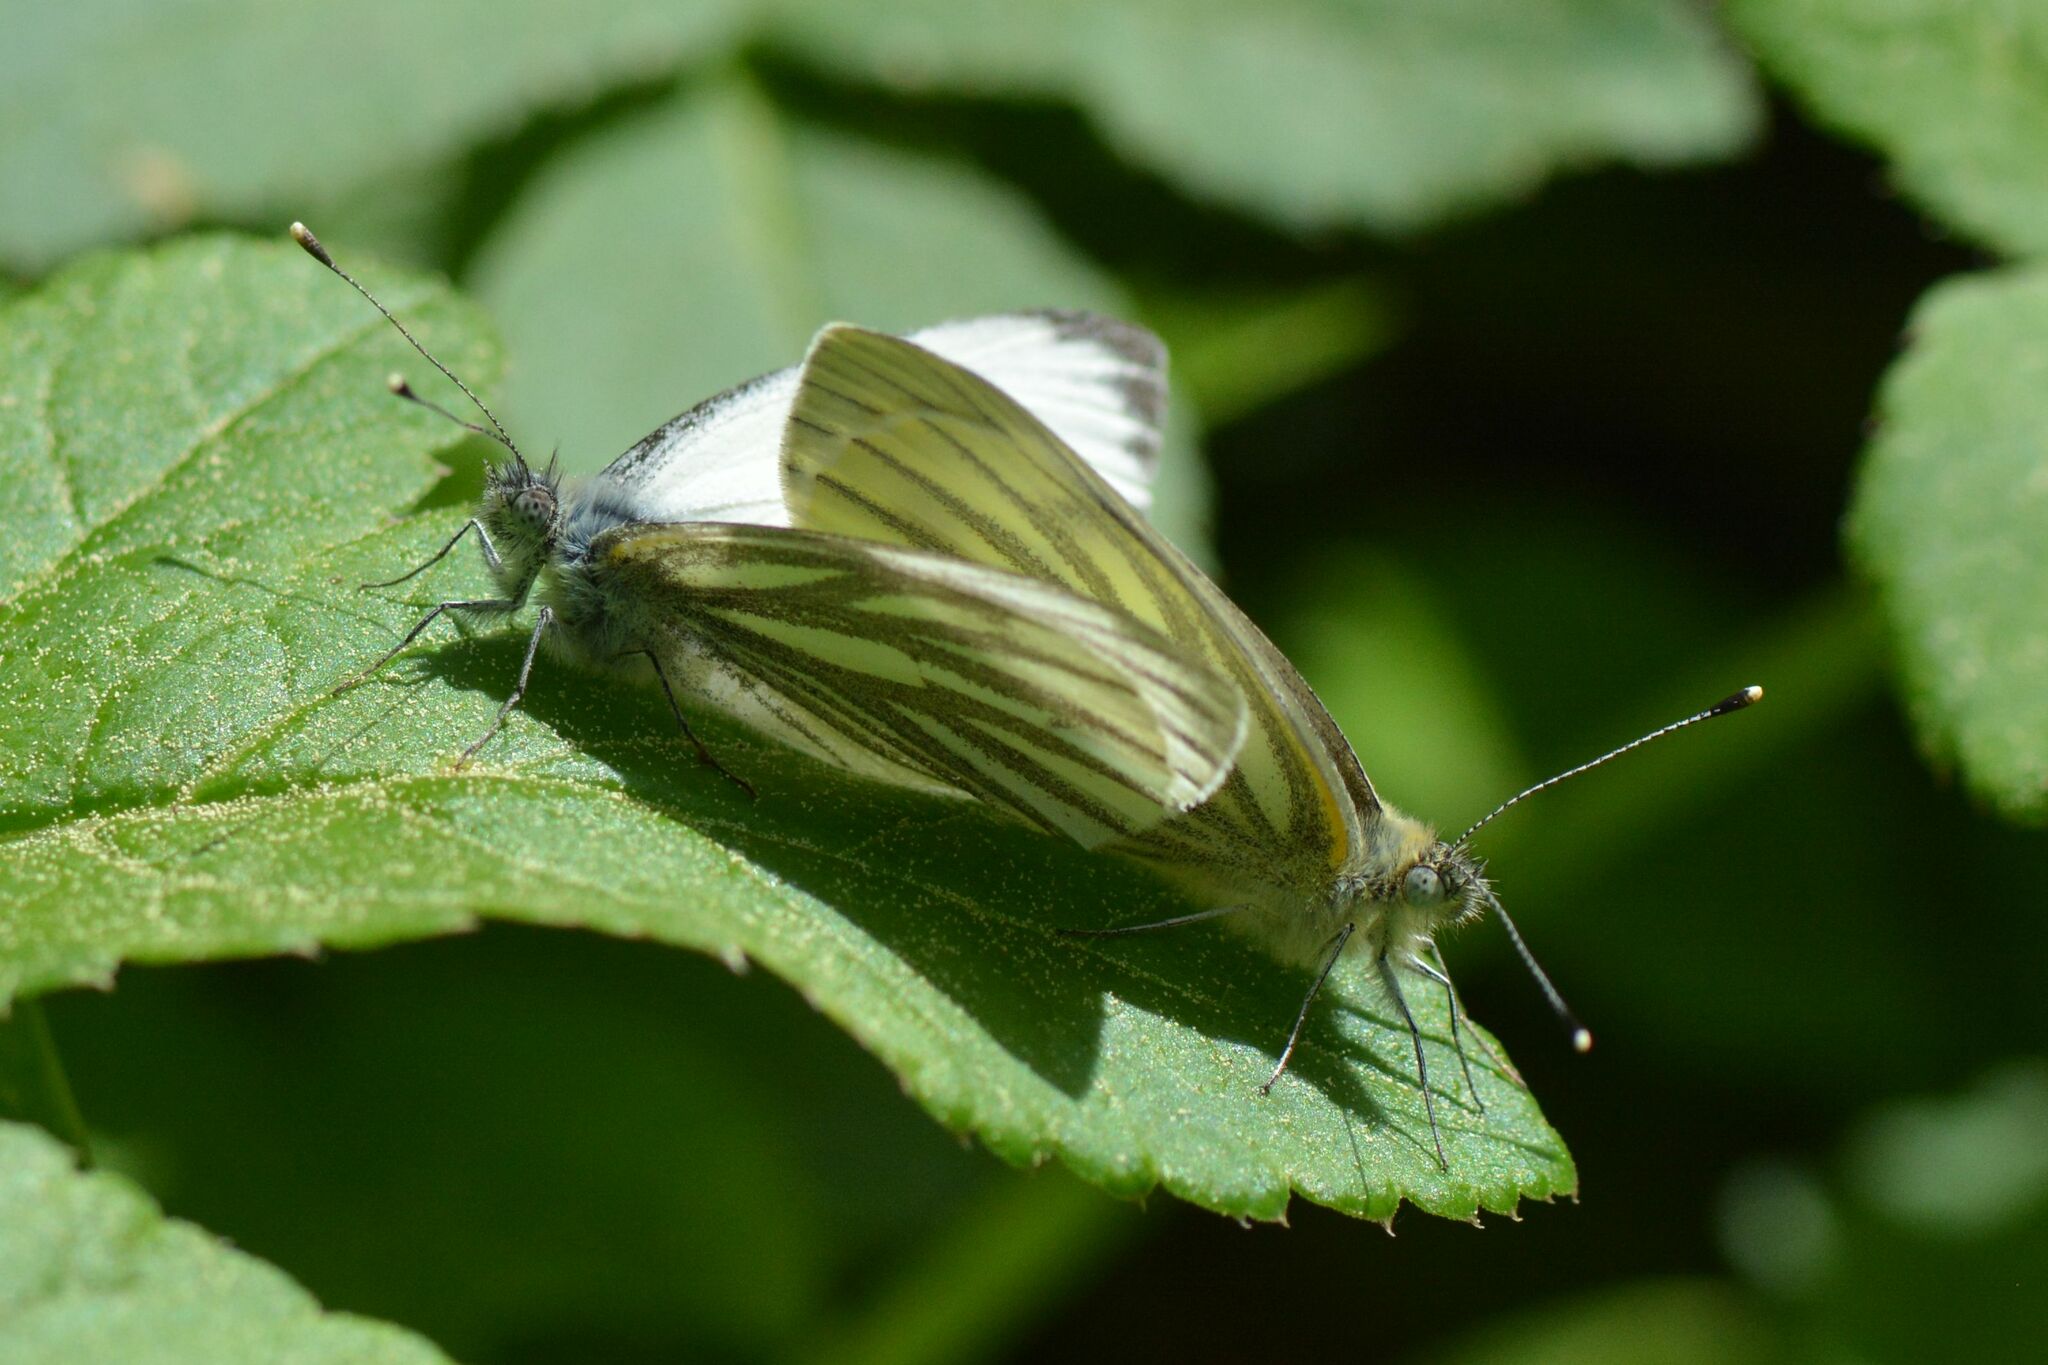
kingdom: Animalia
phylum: Arthropoda
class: Insecta
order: Lepidoptera
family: Pieridae
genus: Pieris
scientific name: Pieris napi
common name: Green-veined white
